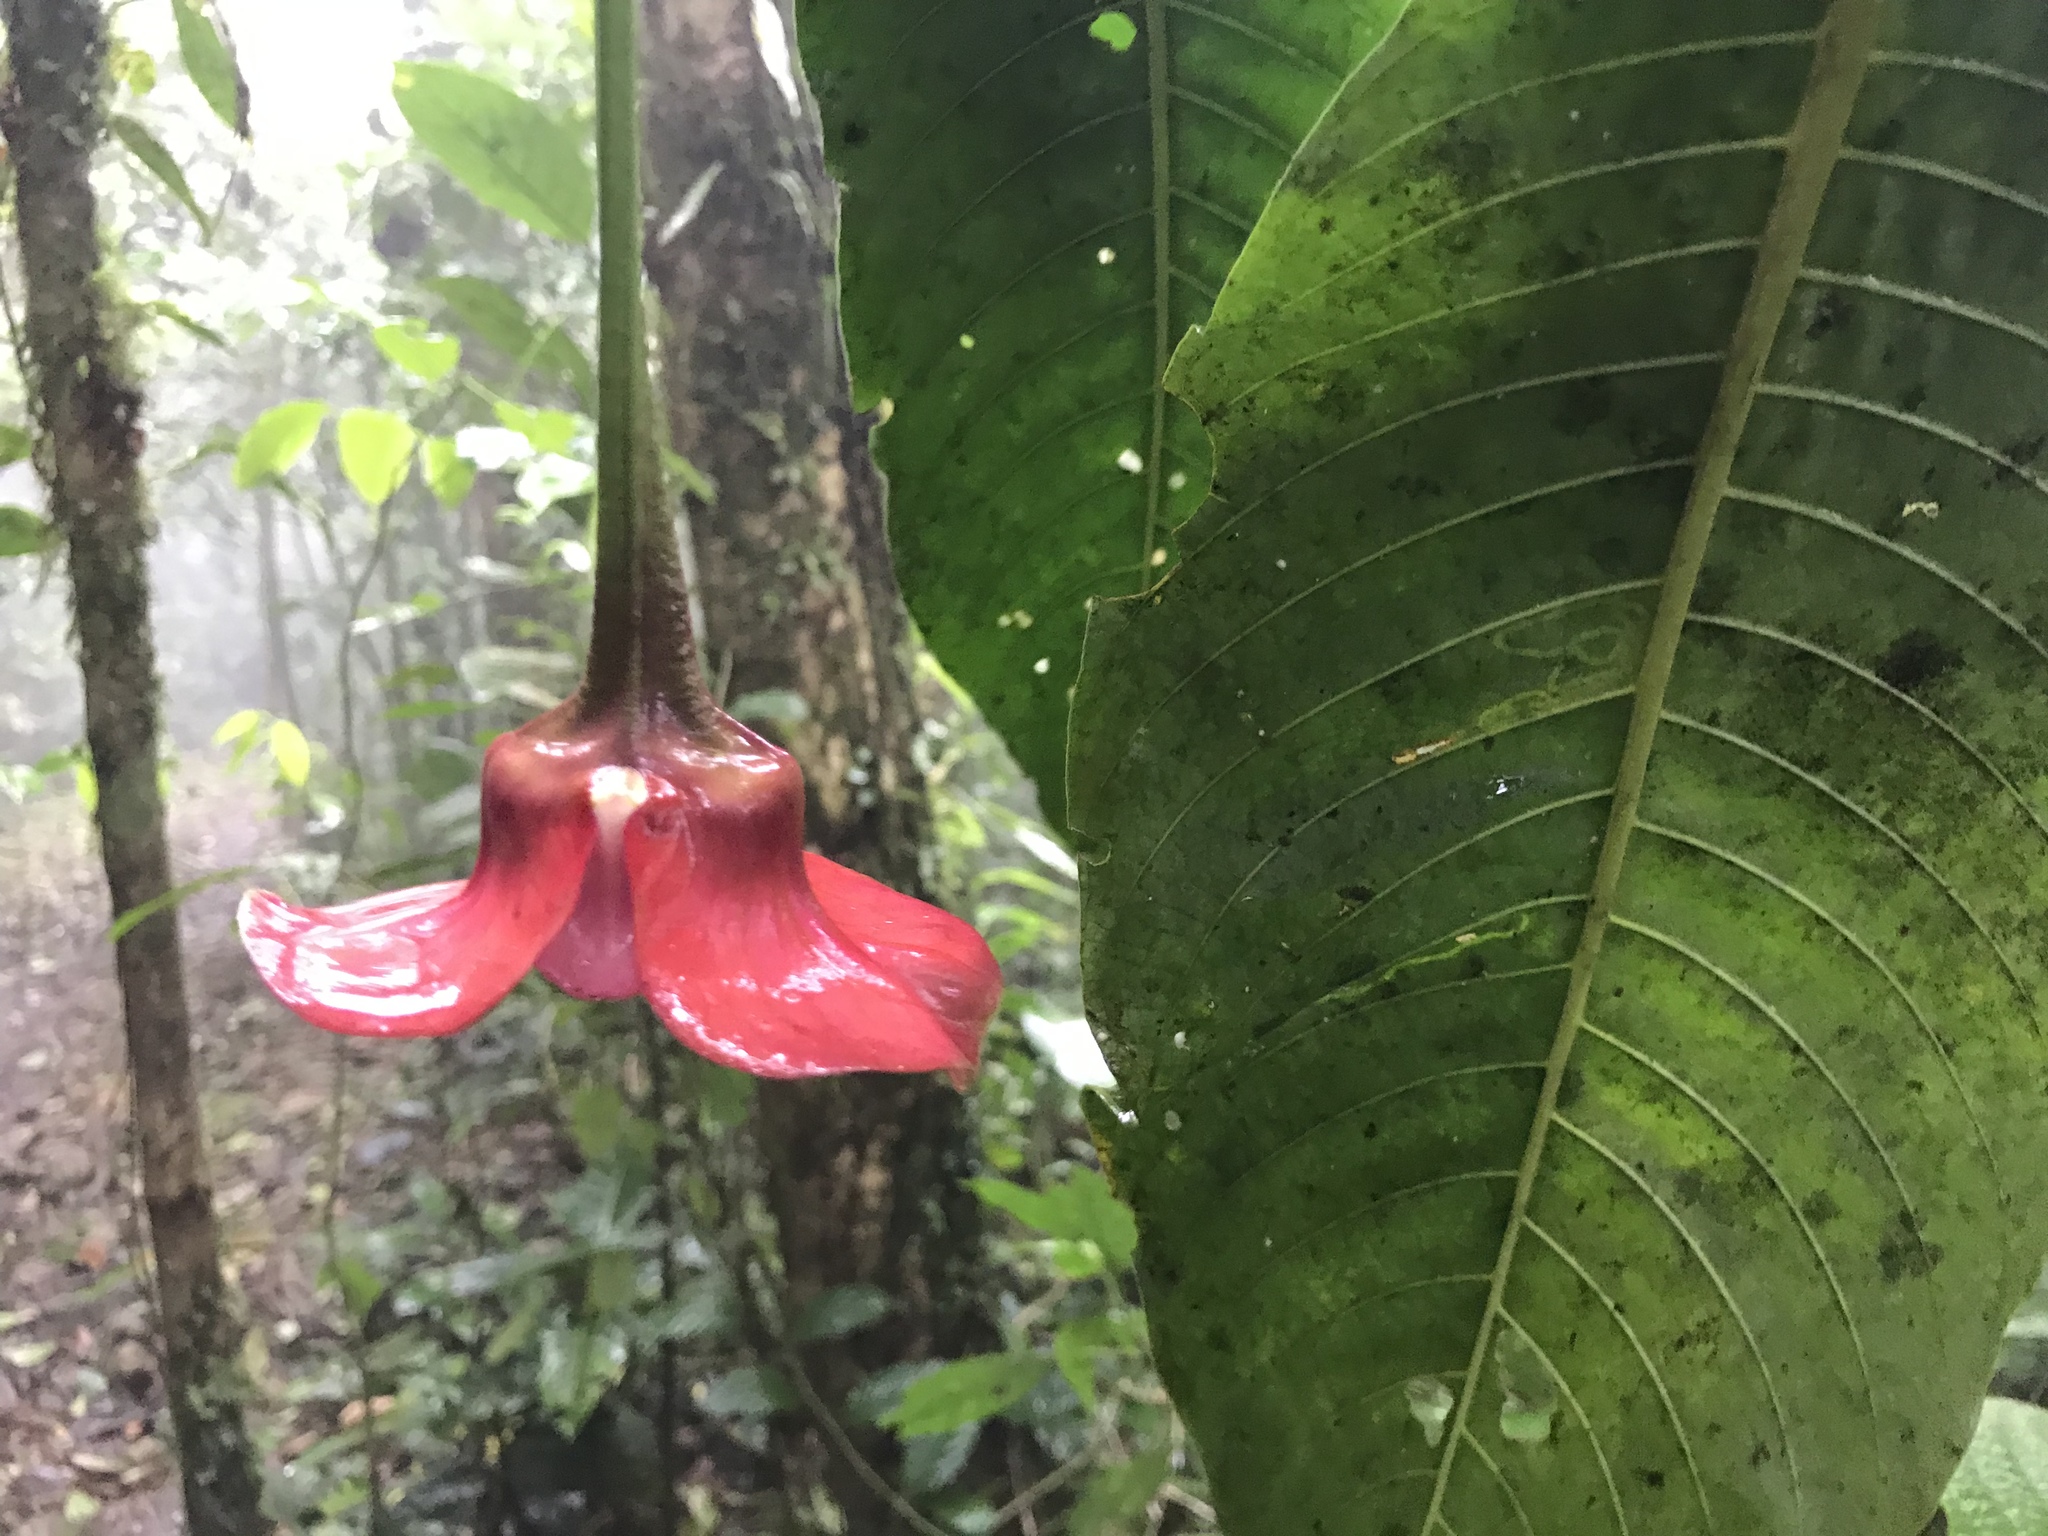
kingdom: Plantae
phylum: Tracheophyta
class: Magnoliopsida
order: Gentianales
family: Rubiaceae
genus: Palicourea
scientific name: Palicourea correae
